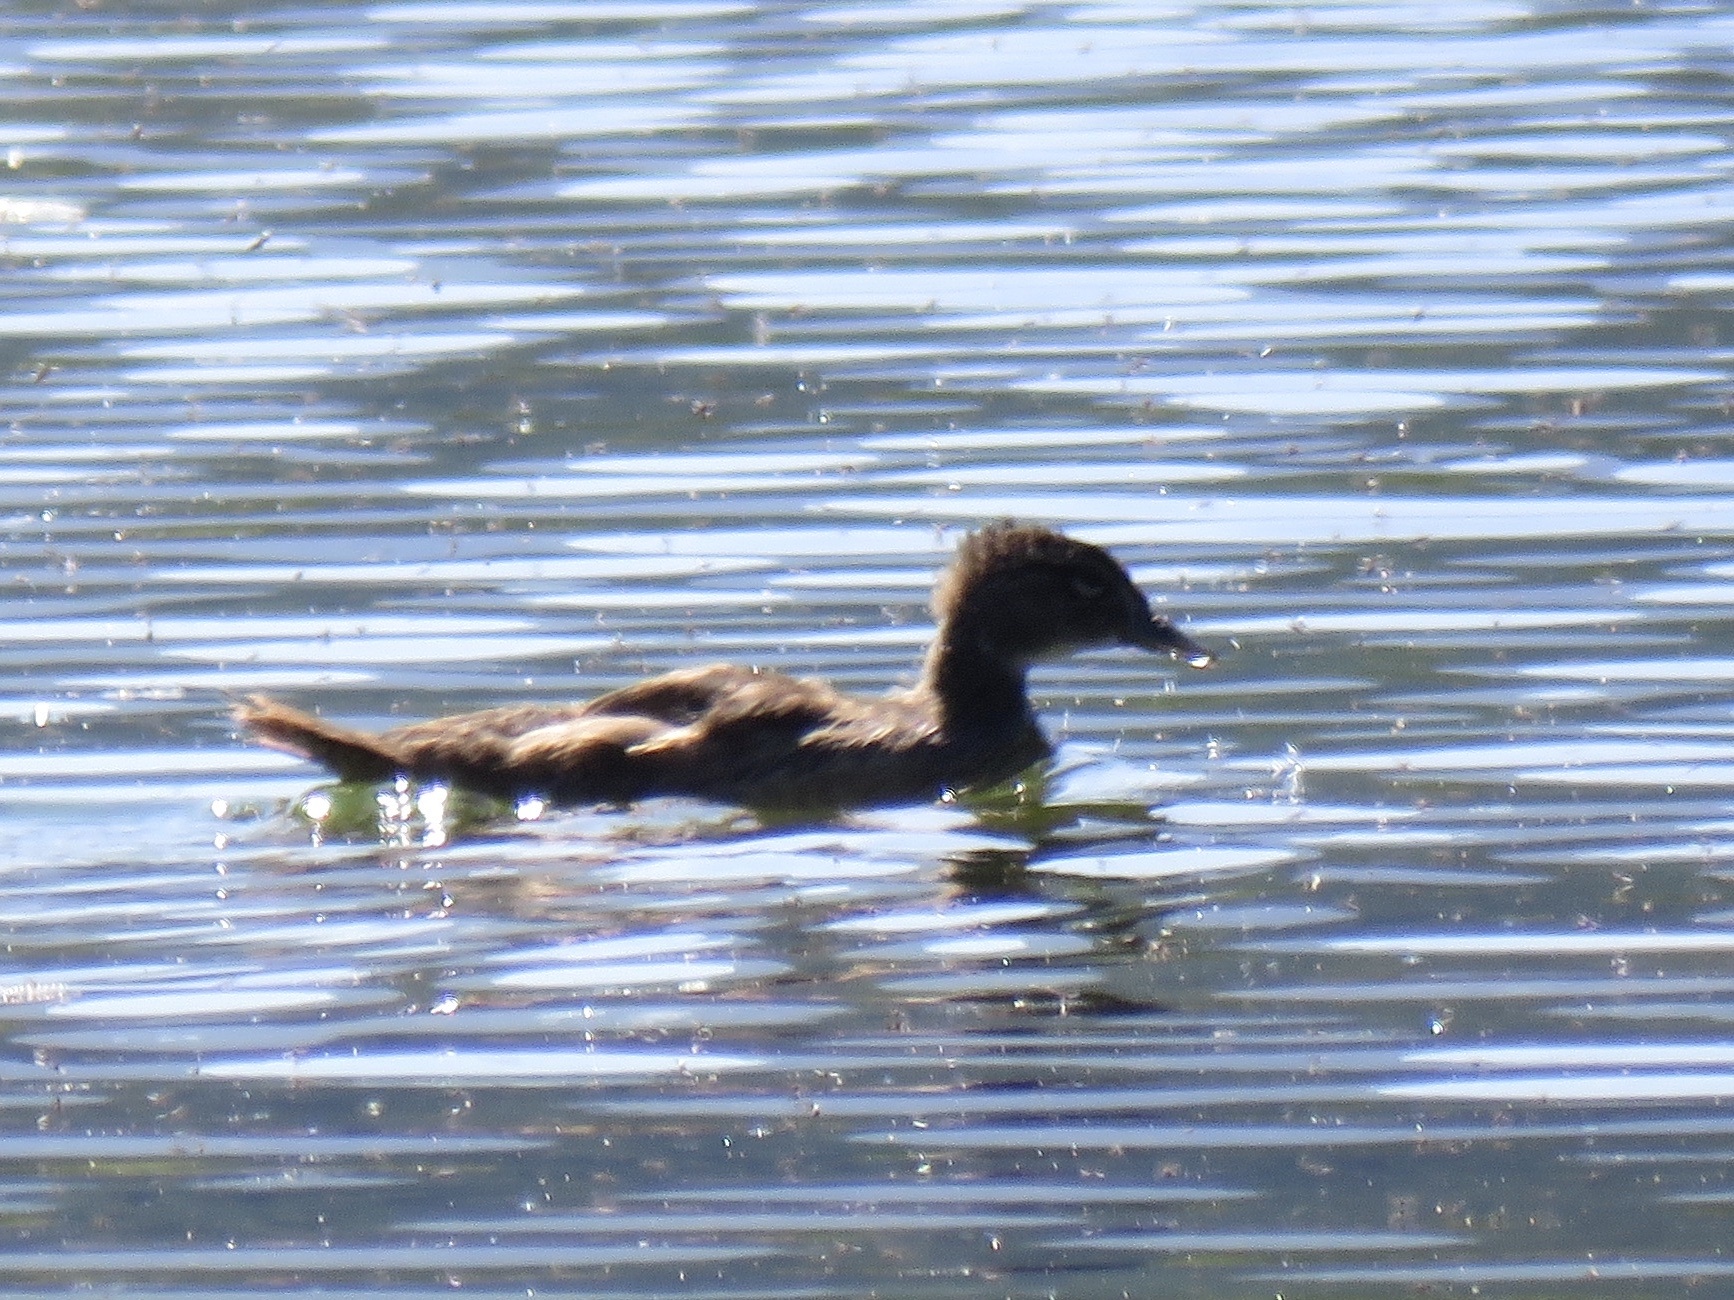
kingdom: Animalia
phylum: Chordata
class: Aves
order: Anseriformes
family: Anatidae
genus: Aix
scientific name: Aix sponsa
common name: Wood duck
